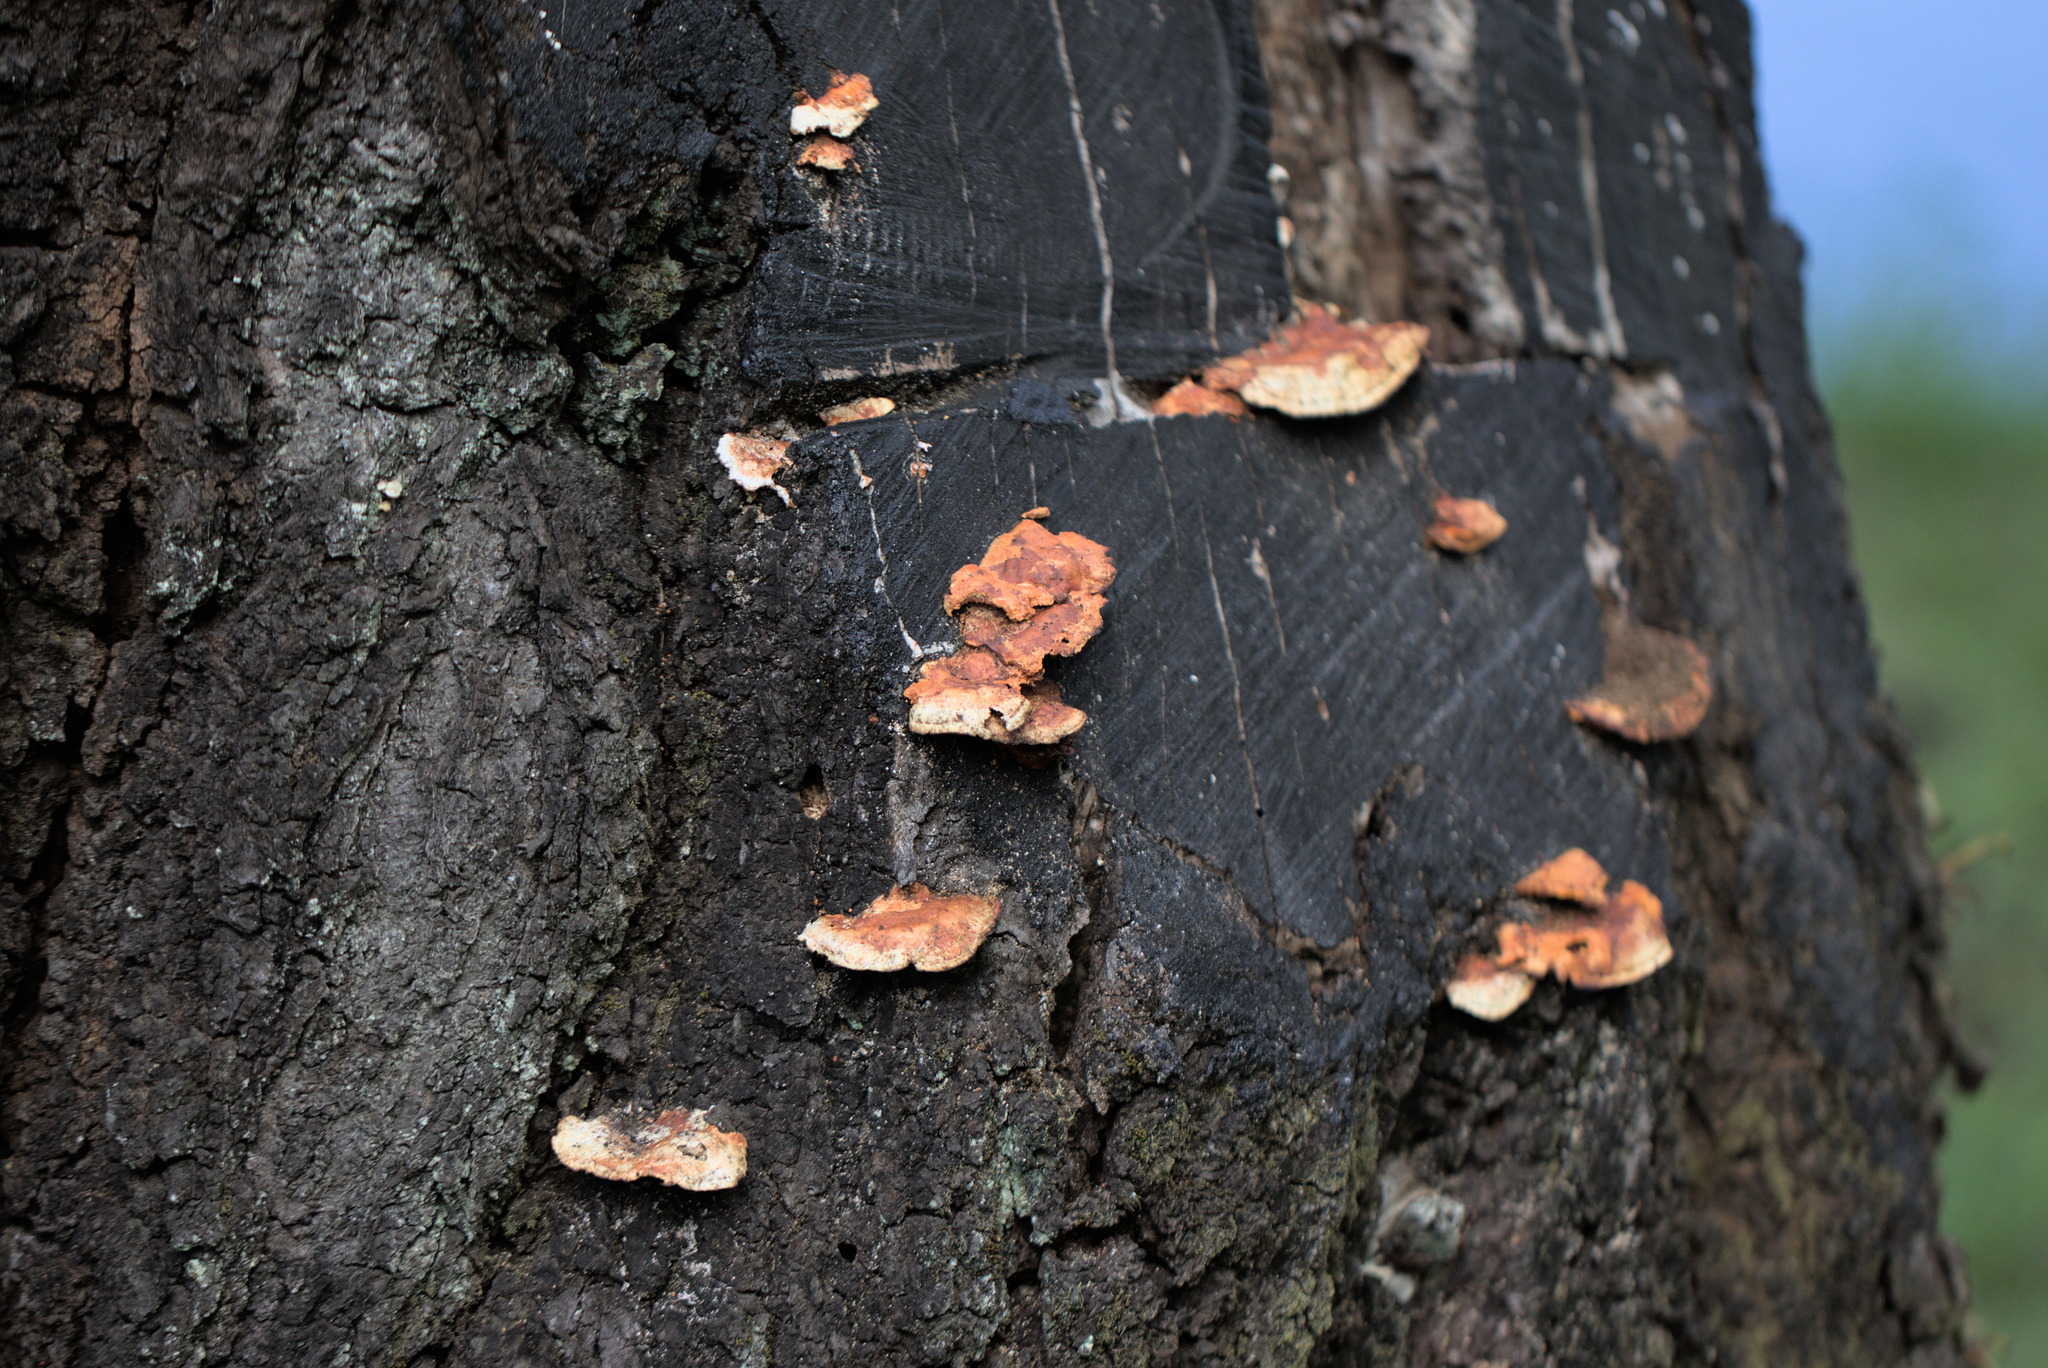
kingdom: Fungi
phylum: Basidiomycota
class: Agaricomycetes
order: Polyporales
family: Polyporaceae
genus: Trametes
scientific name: Trametes coccinea
